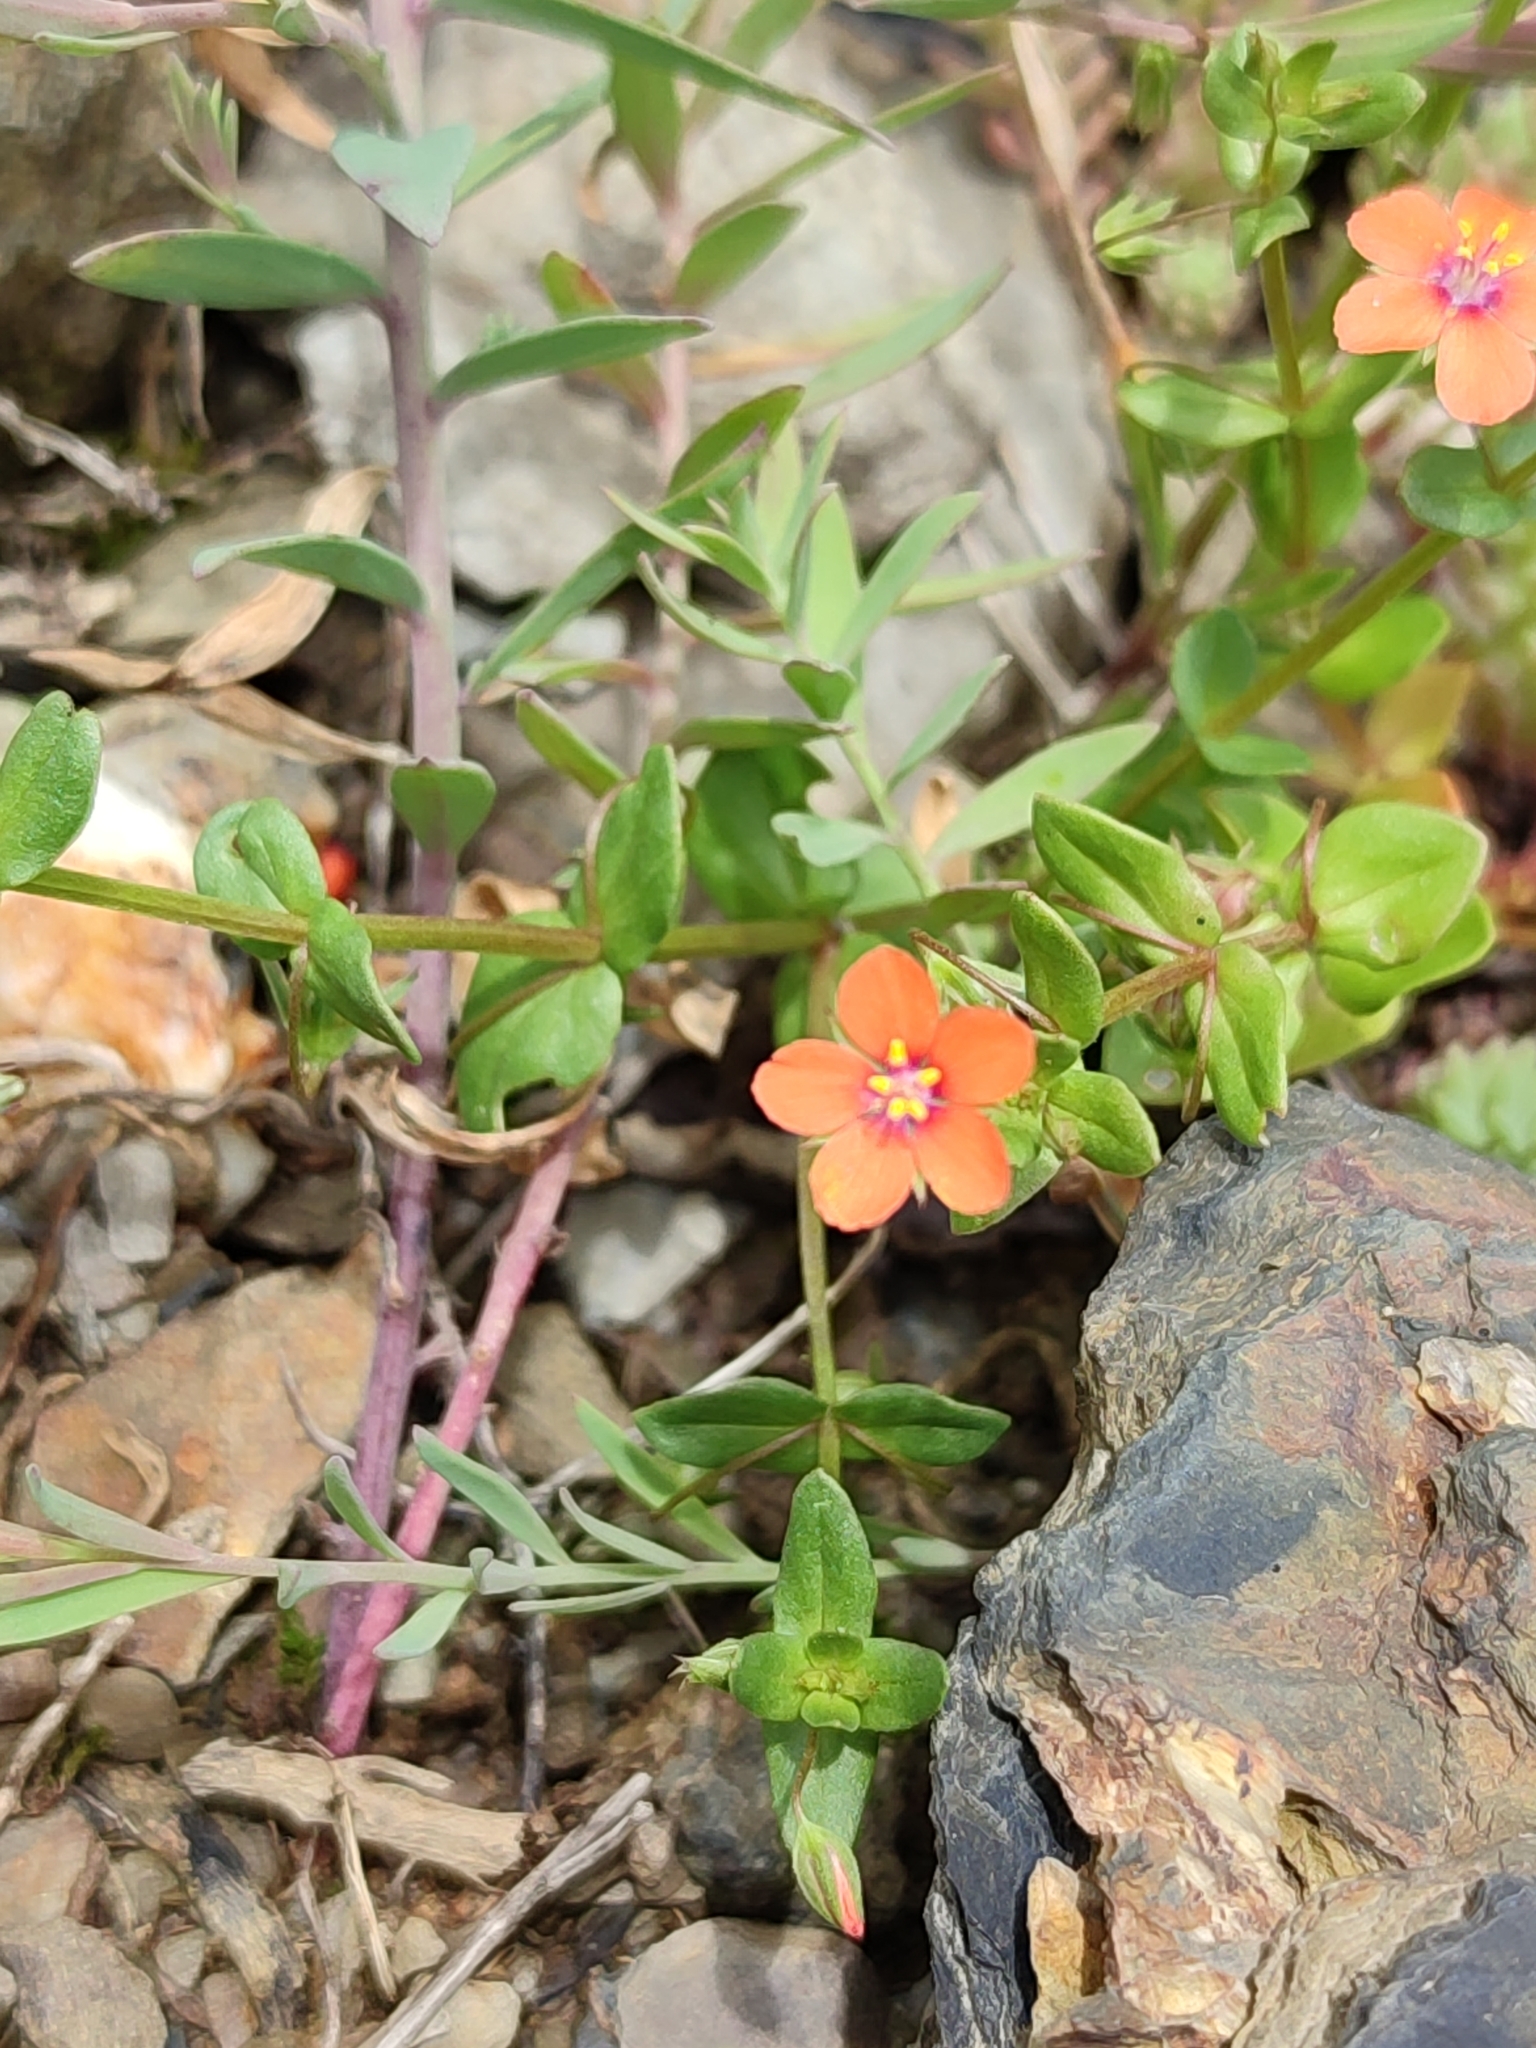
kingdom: Plantae
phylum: Tracheophyta
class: Magnoliopsida
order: Ericales
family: Primulaceae
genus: Lysimachia
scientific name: Lysimachia arvensis
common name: Scarlet pimpernel
